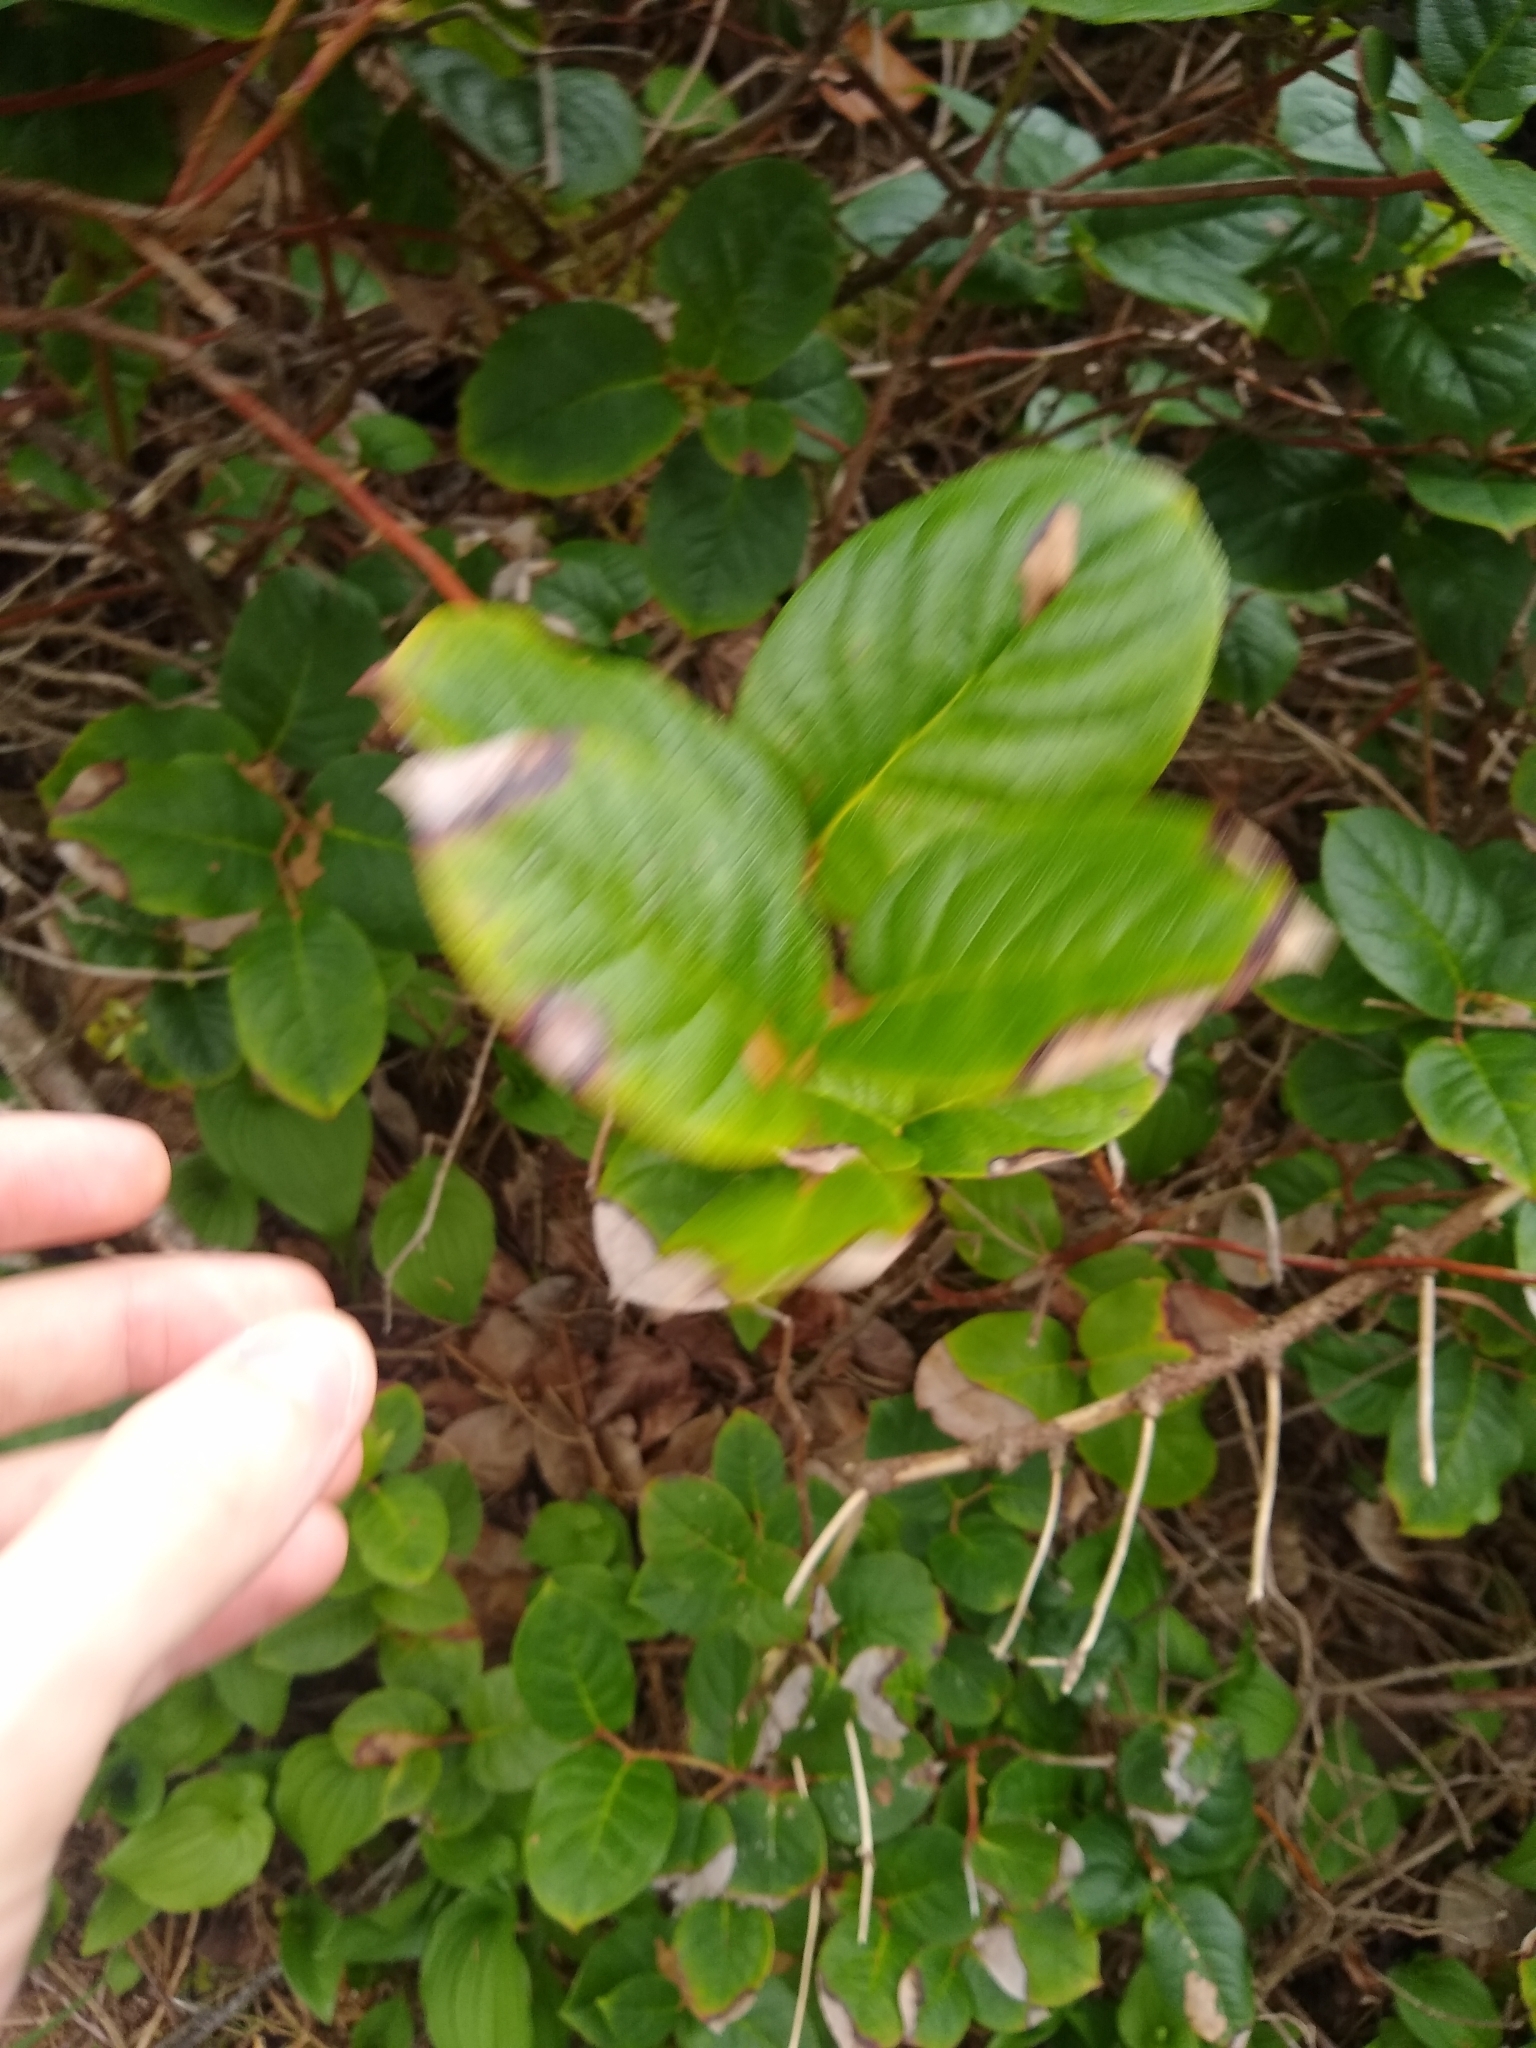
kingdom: Plantae
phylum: Tracheophyta
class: Magnoliopsida
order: Ericales
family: Ericaceae
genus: Gaultheria
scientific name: Gaultheria shallon
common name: Shallon
